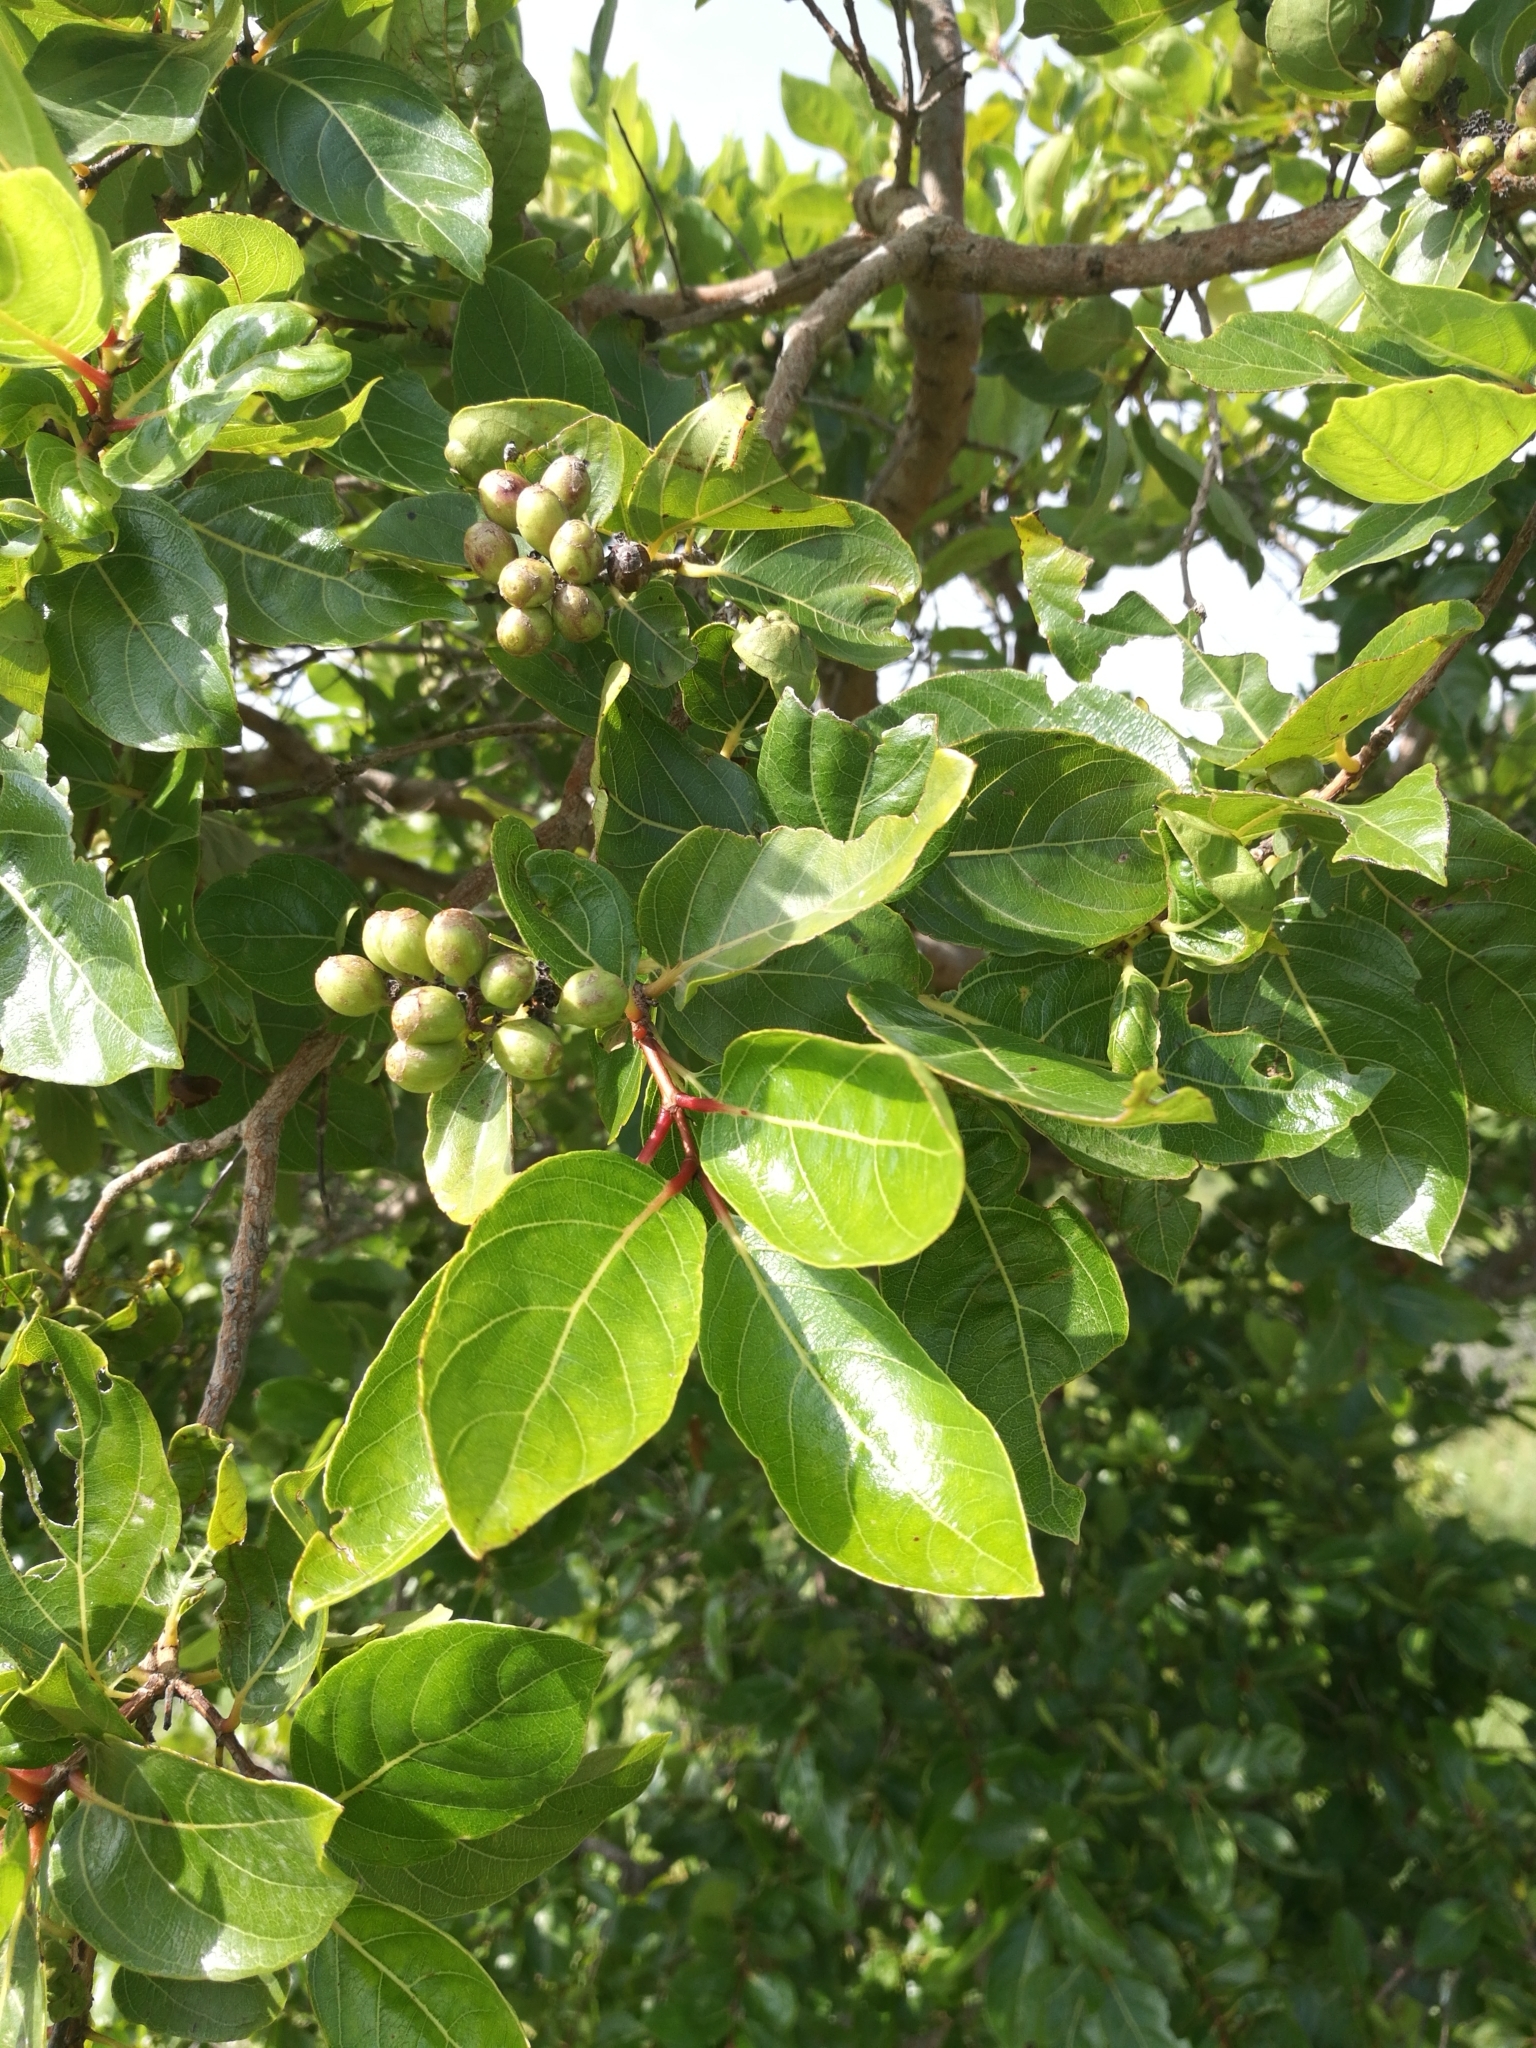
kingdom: Plantae
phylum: Tracheophyta
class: Magnoliopsida
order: Gentianales
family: Rubiaceae
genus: Crossopteryx
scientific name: Crossopteryx febrifuga
